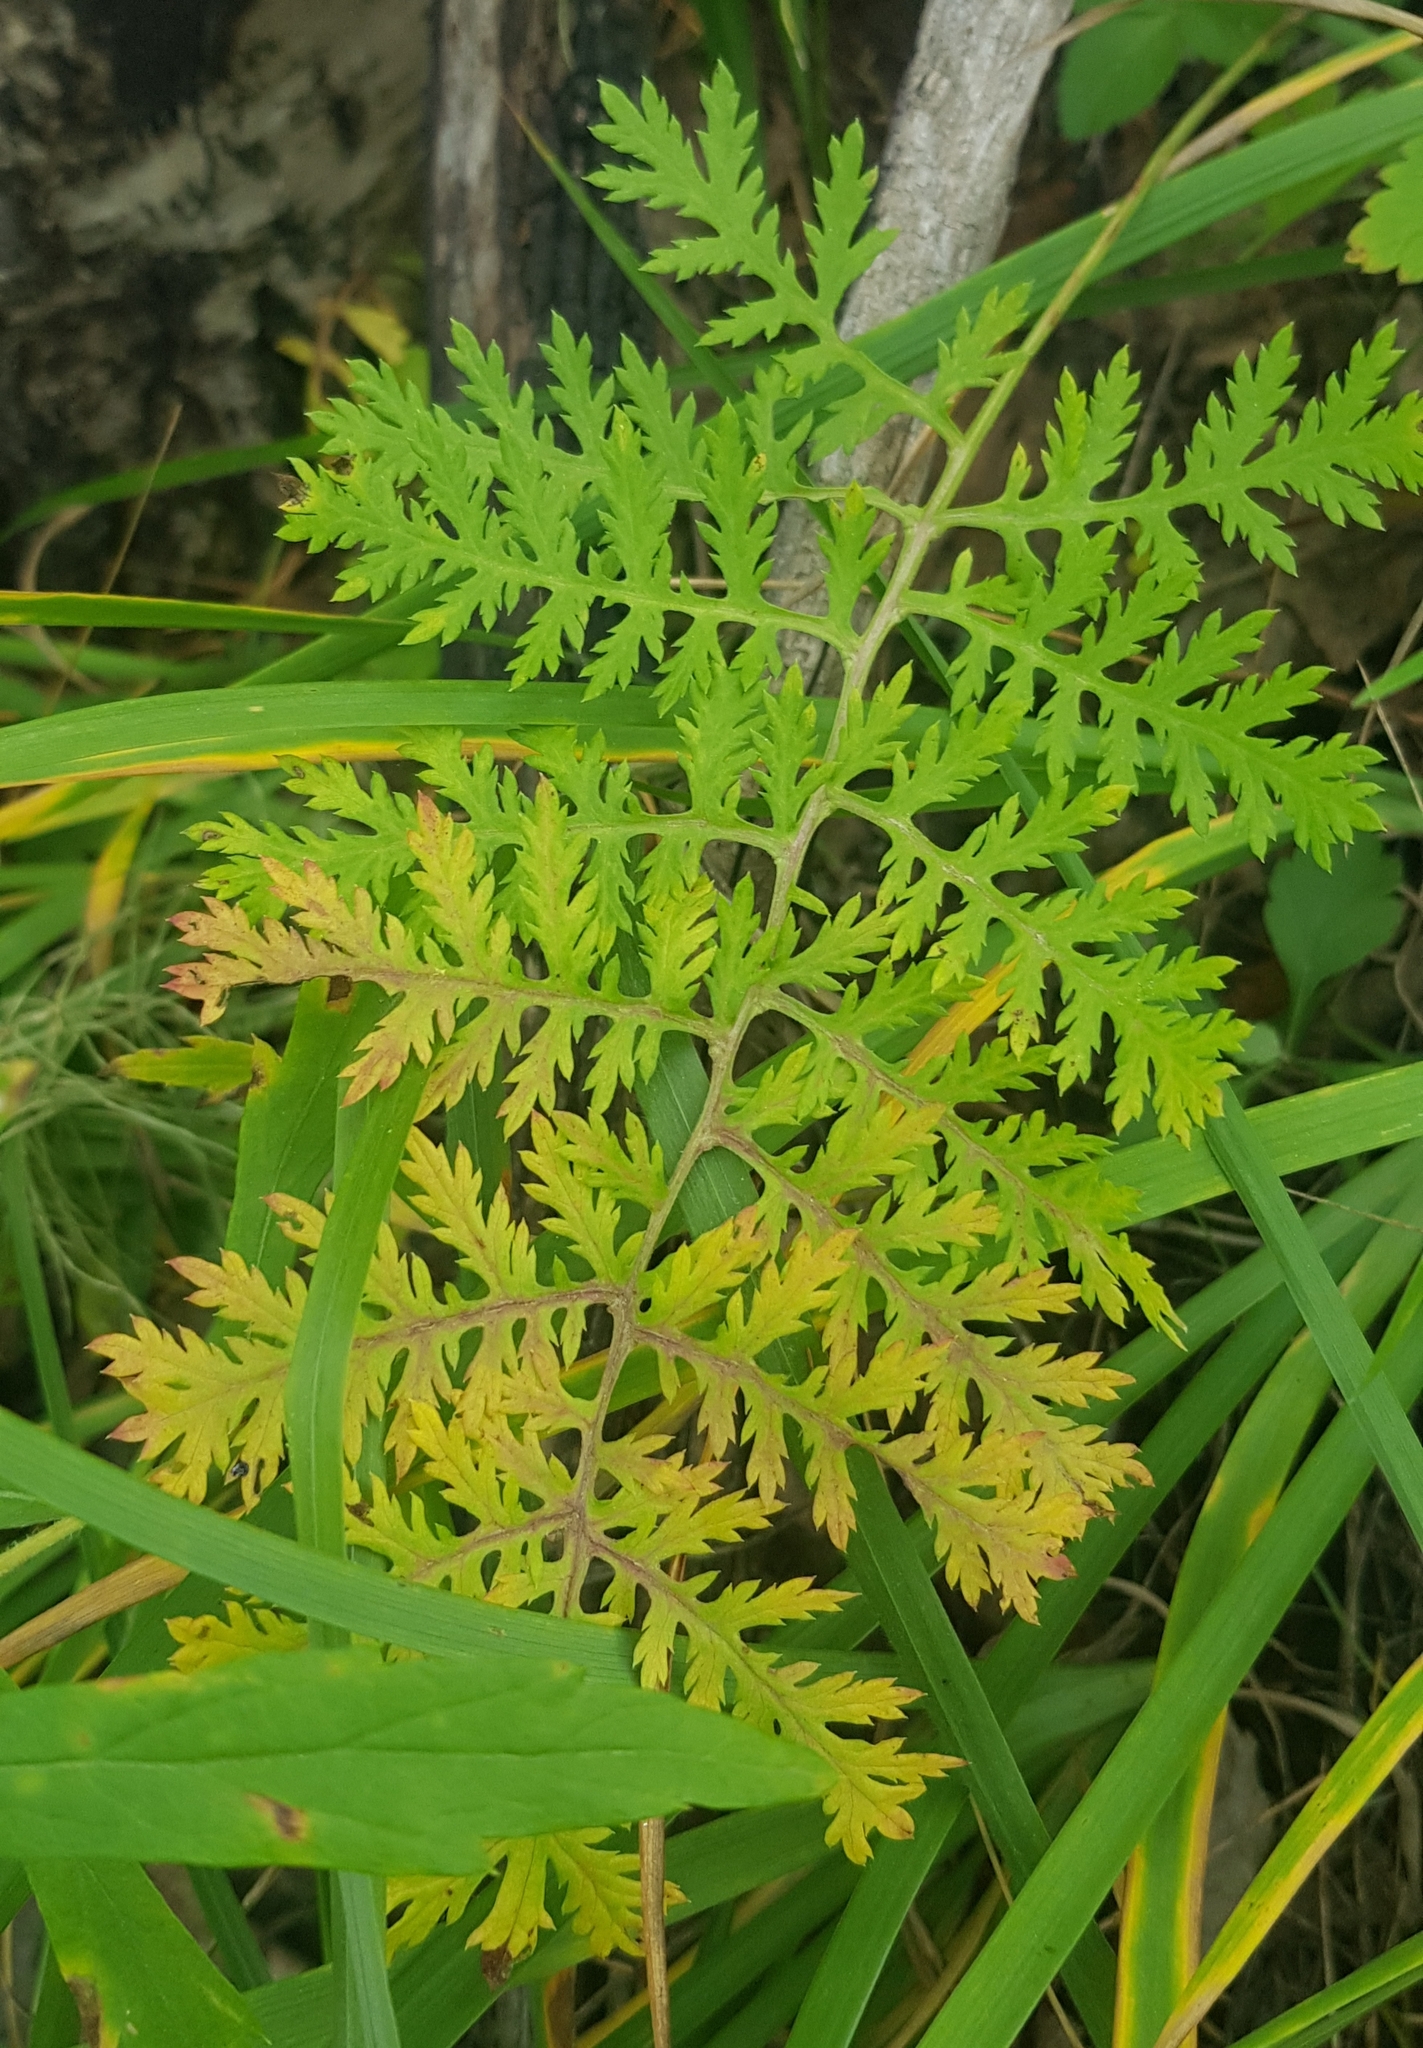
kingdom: Plantae
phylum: Tracheophyta
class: Magnoliopsida
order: Asterales
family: Asteraceae
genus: Artemisia
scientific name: Artemisia tanacetifolia
